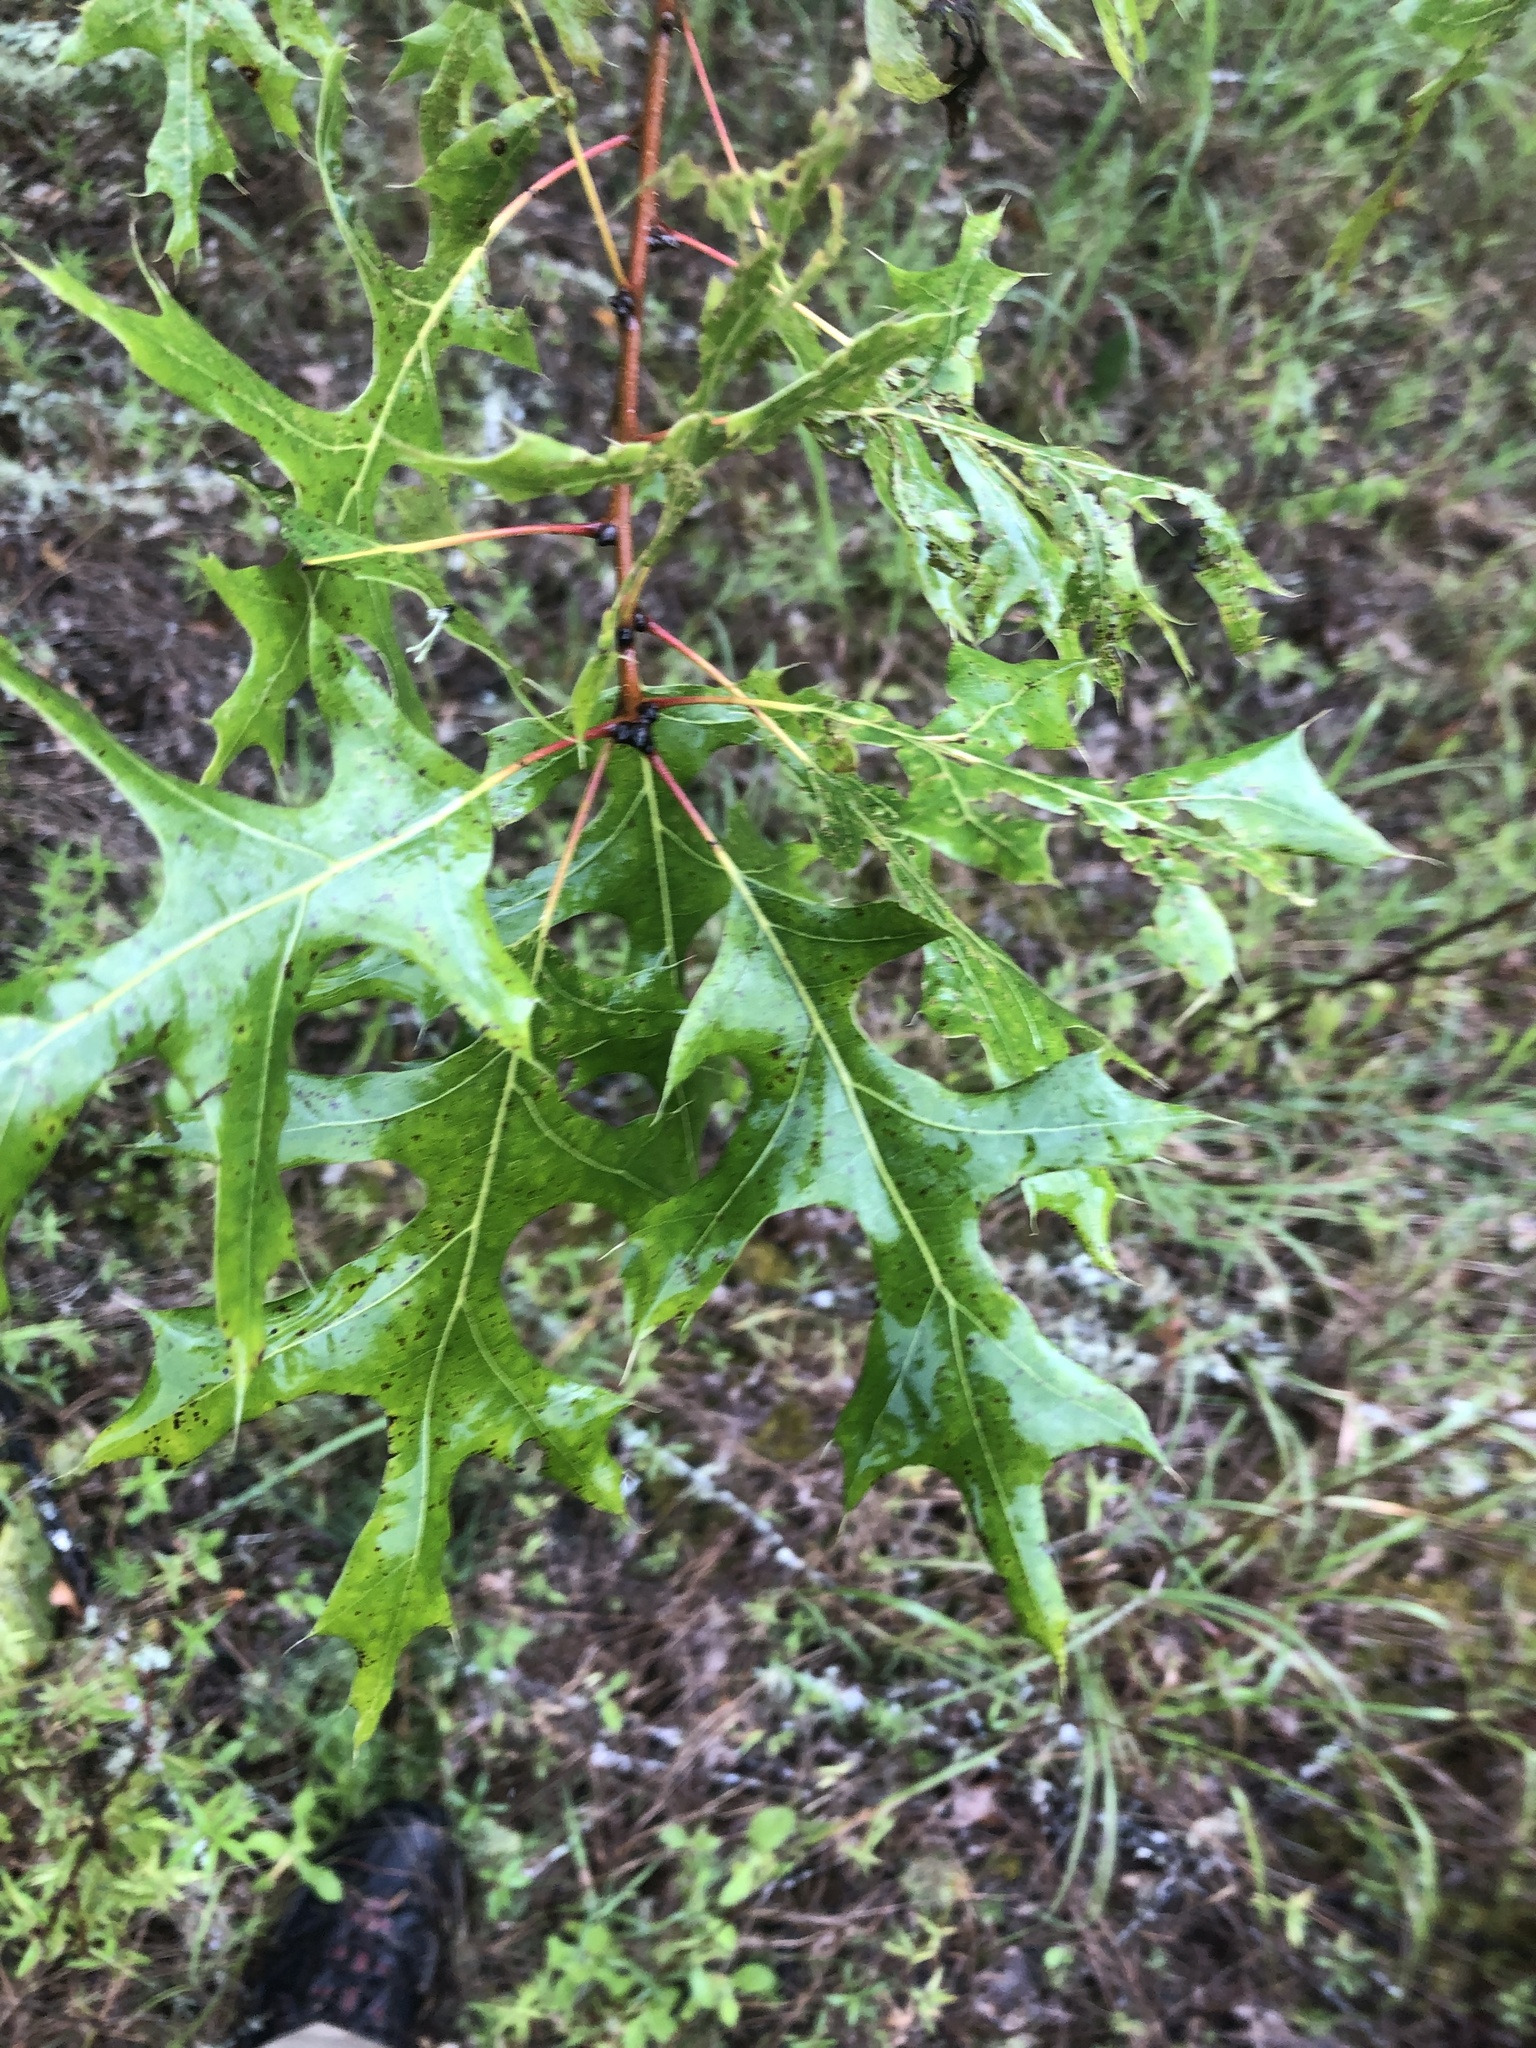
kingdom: Plantae
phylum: Tracheophyta
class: Magnoliopsida
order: Fagales
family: Fagaceae
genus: Quercus
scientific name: Quercus texana
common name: Nuttall oak
